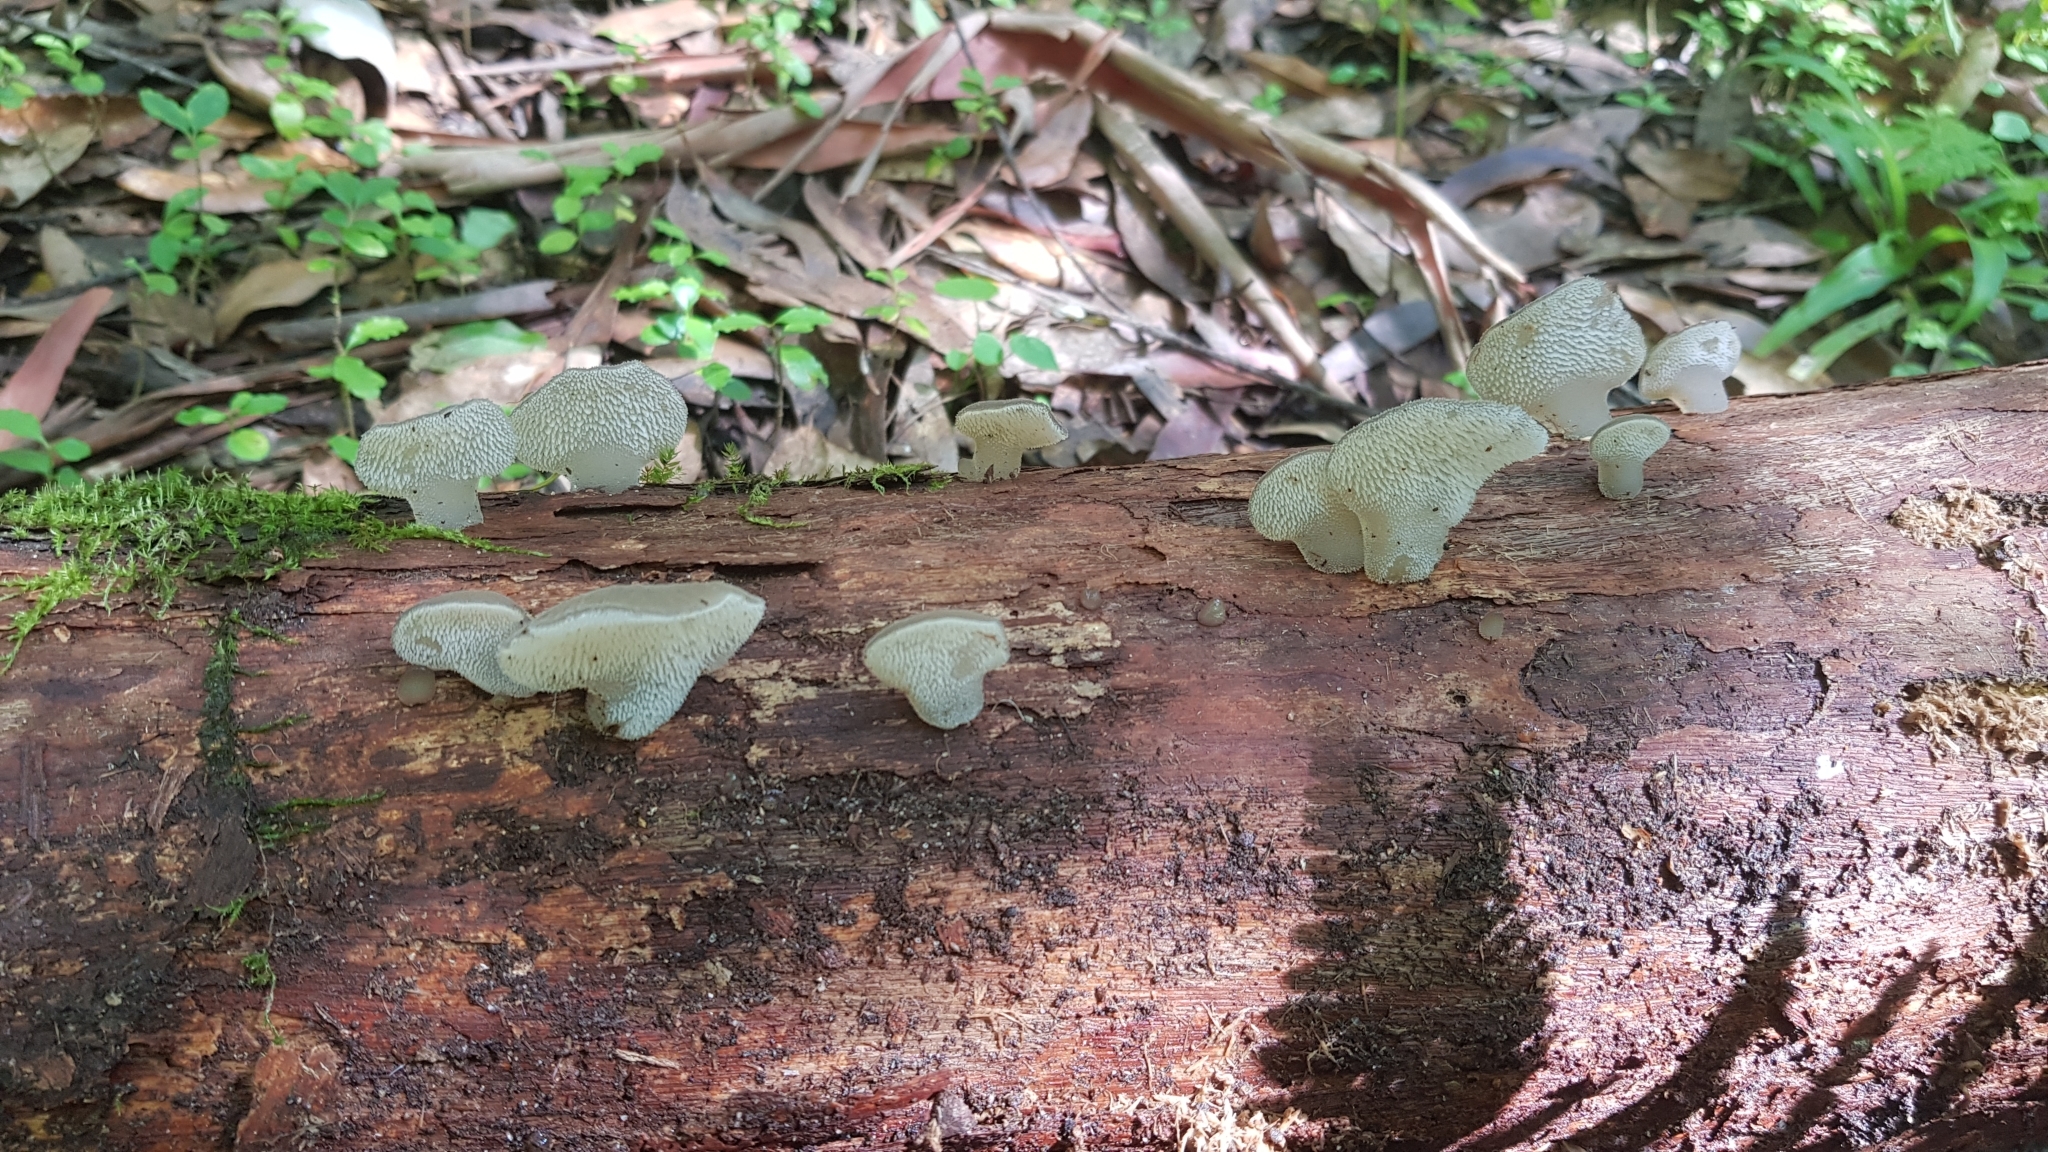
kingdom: Fungi
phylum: Basidiomycota
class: Agaricomycetes
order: Auriculariales
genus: Pseudohydnum
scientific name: Pseudohydnum gelatinosum
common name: Jelly tongue
